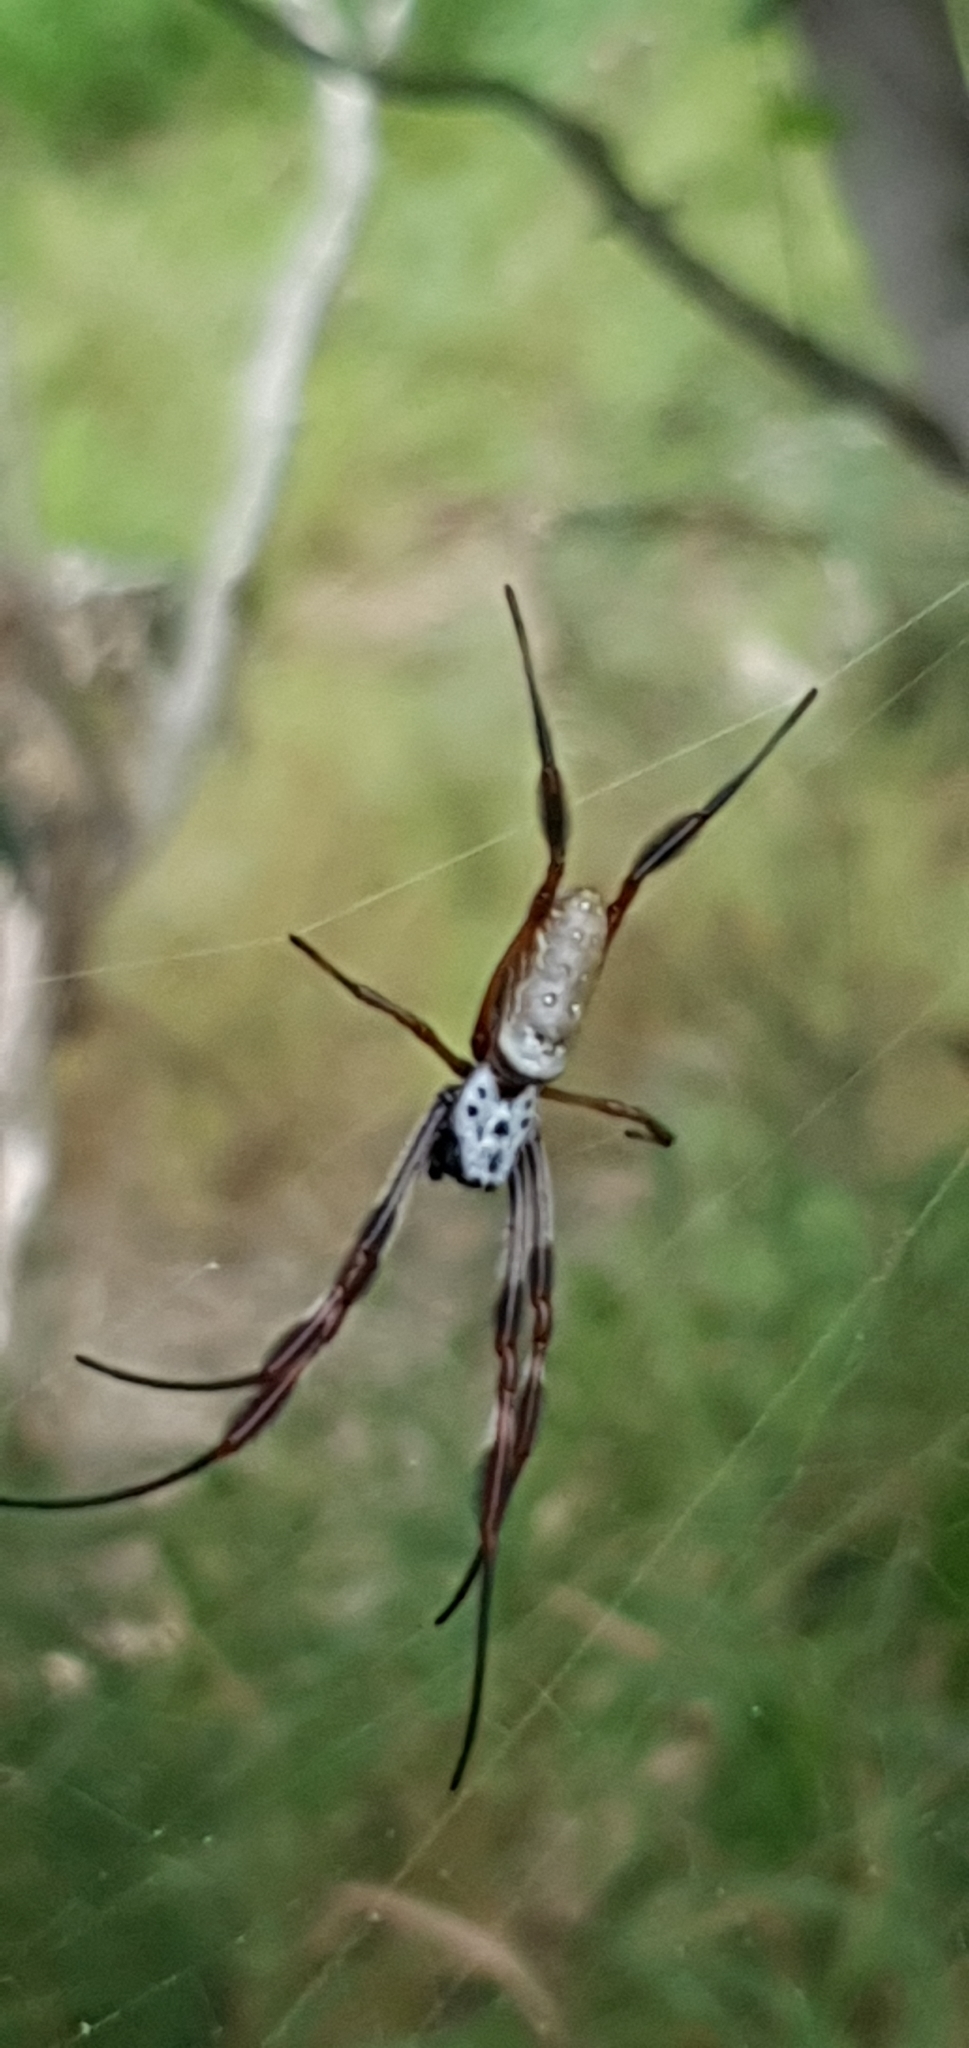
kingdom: Animalia
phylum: Arthropoda
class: Arachnida
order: Araneae
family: Araneidae
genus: Trichonephila
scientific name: Trichonephila edulis
